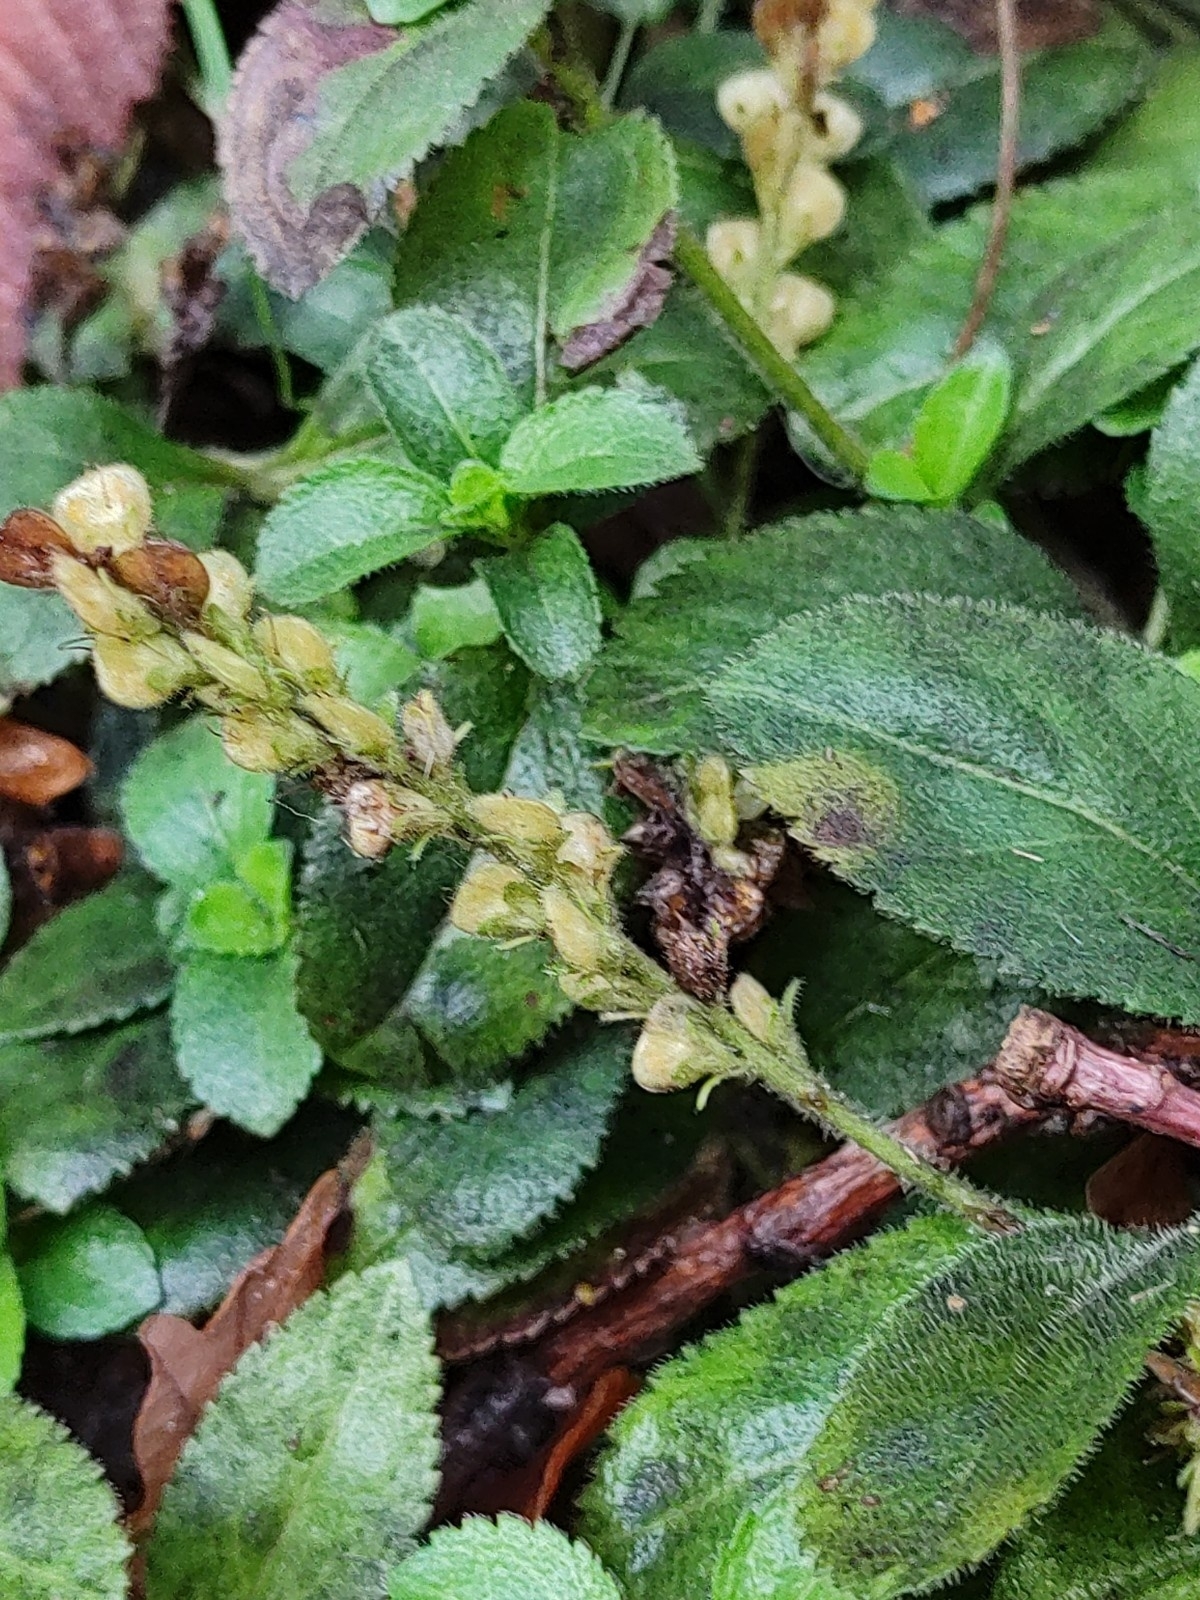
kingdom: Plantae
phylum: Tracheophyta
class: Magnoliopsida
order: Lamiales
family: Plantaginaceae
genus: Veronica
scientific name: Veronica officinalis
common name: Common speedwell
